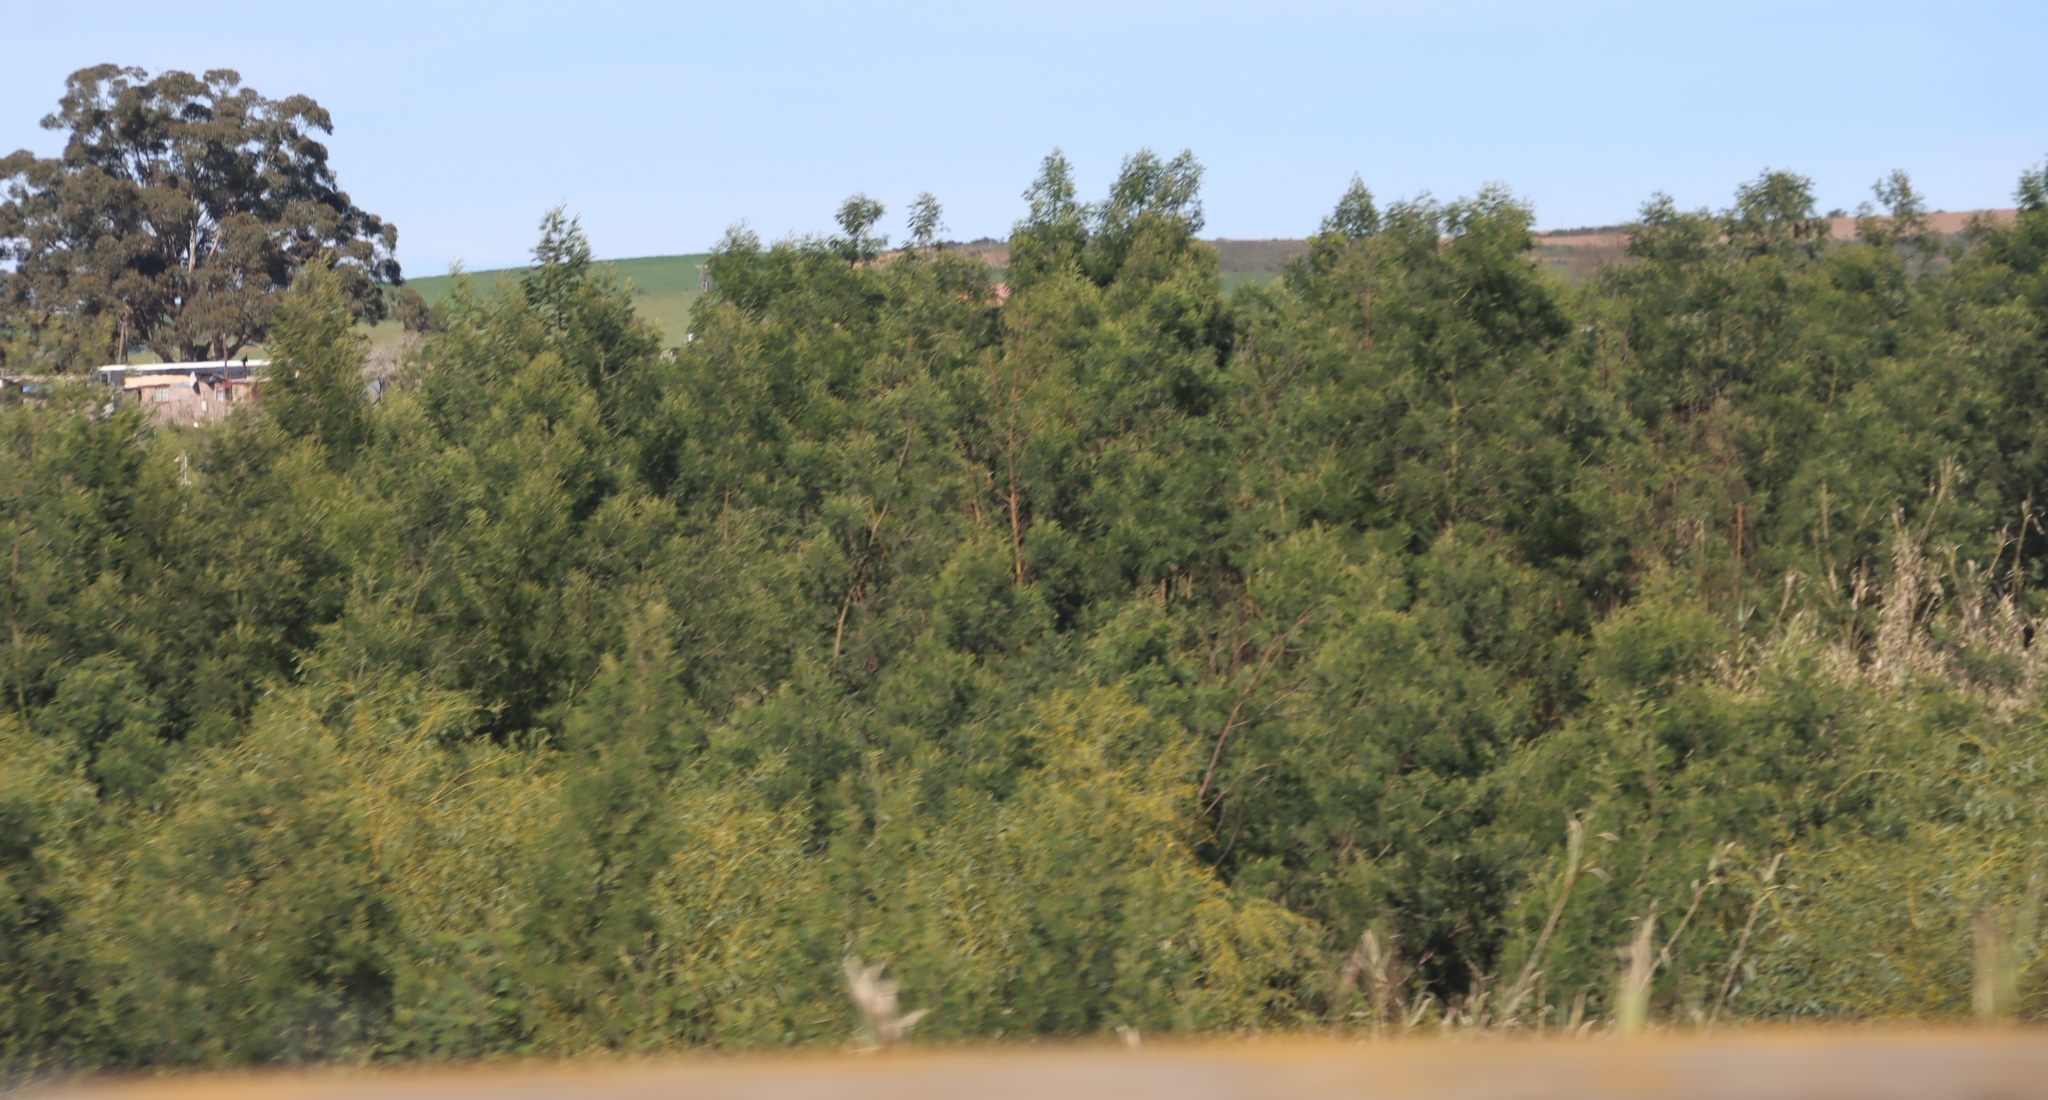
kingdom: Plantae
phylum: Tracheophyta
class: Magnoliopsida
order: Fabales
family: Fabaceae
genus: Acacia
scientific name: Acacia mearnsii
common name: Black wattle
